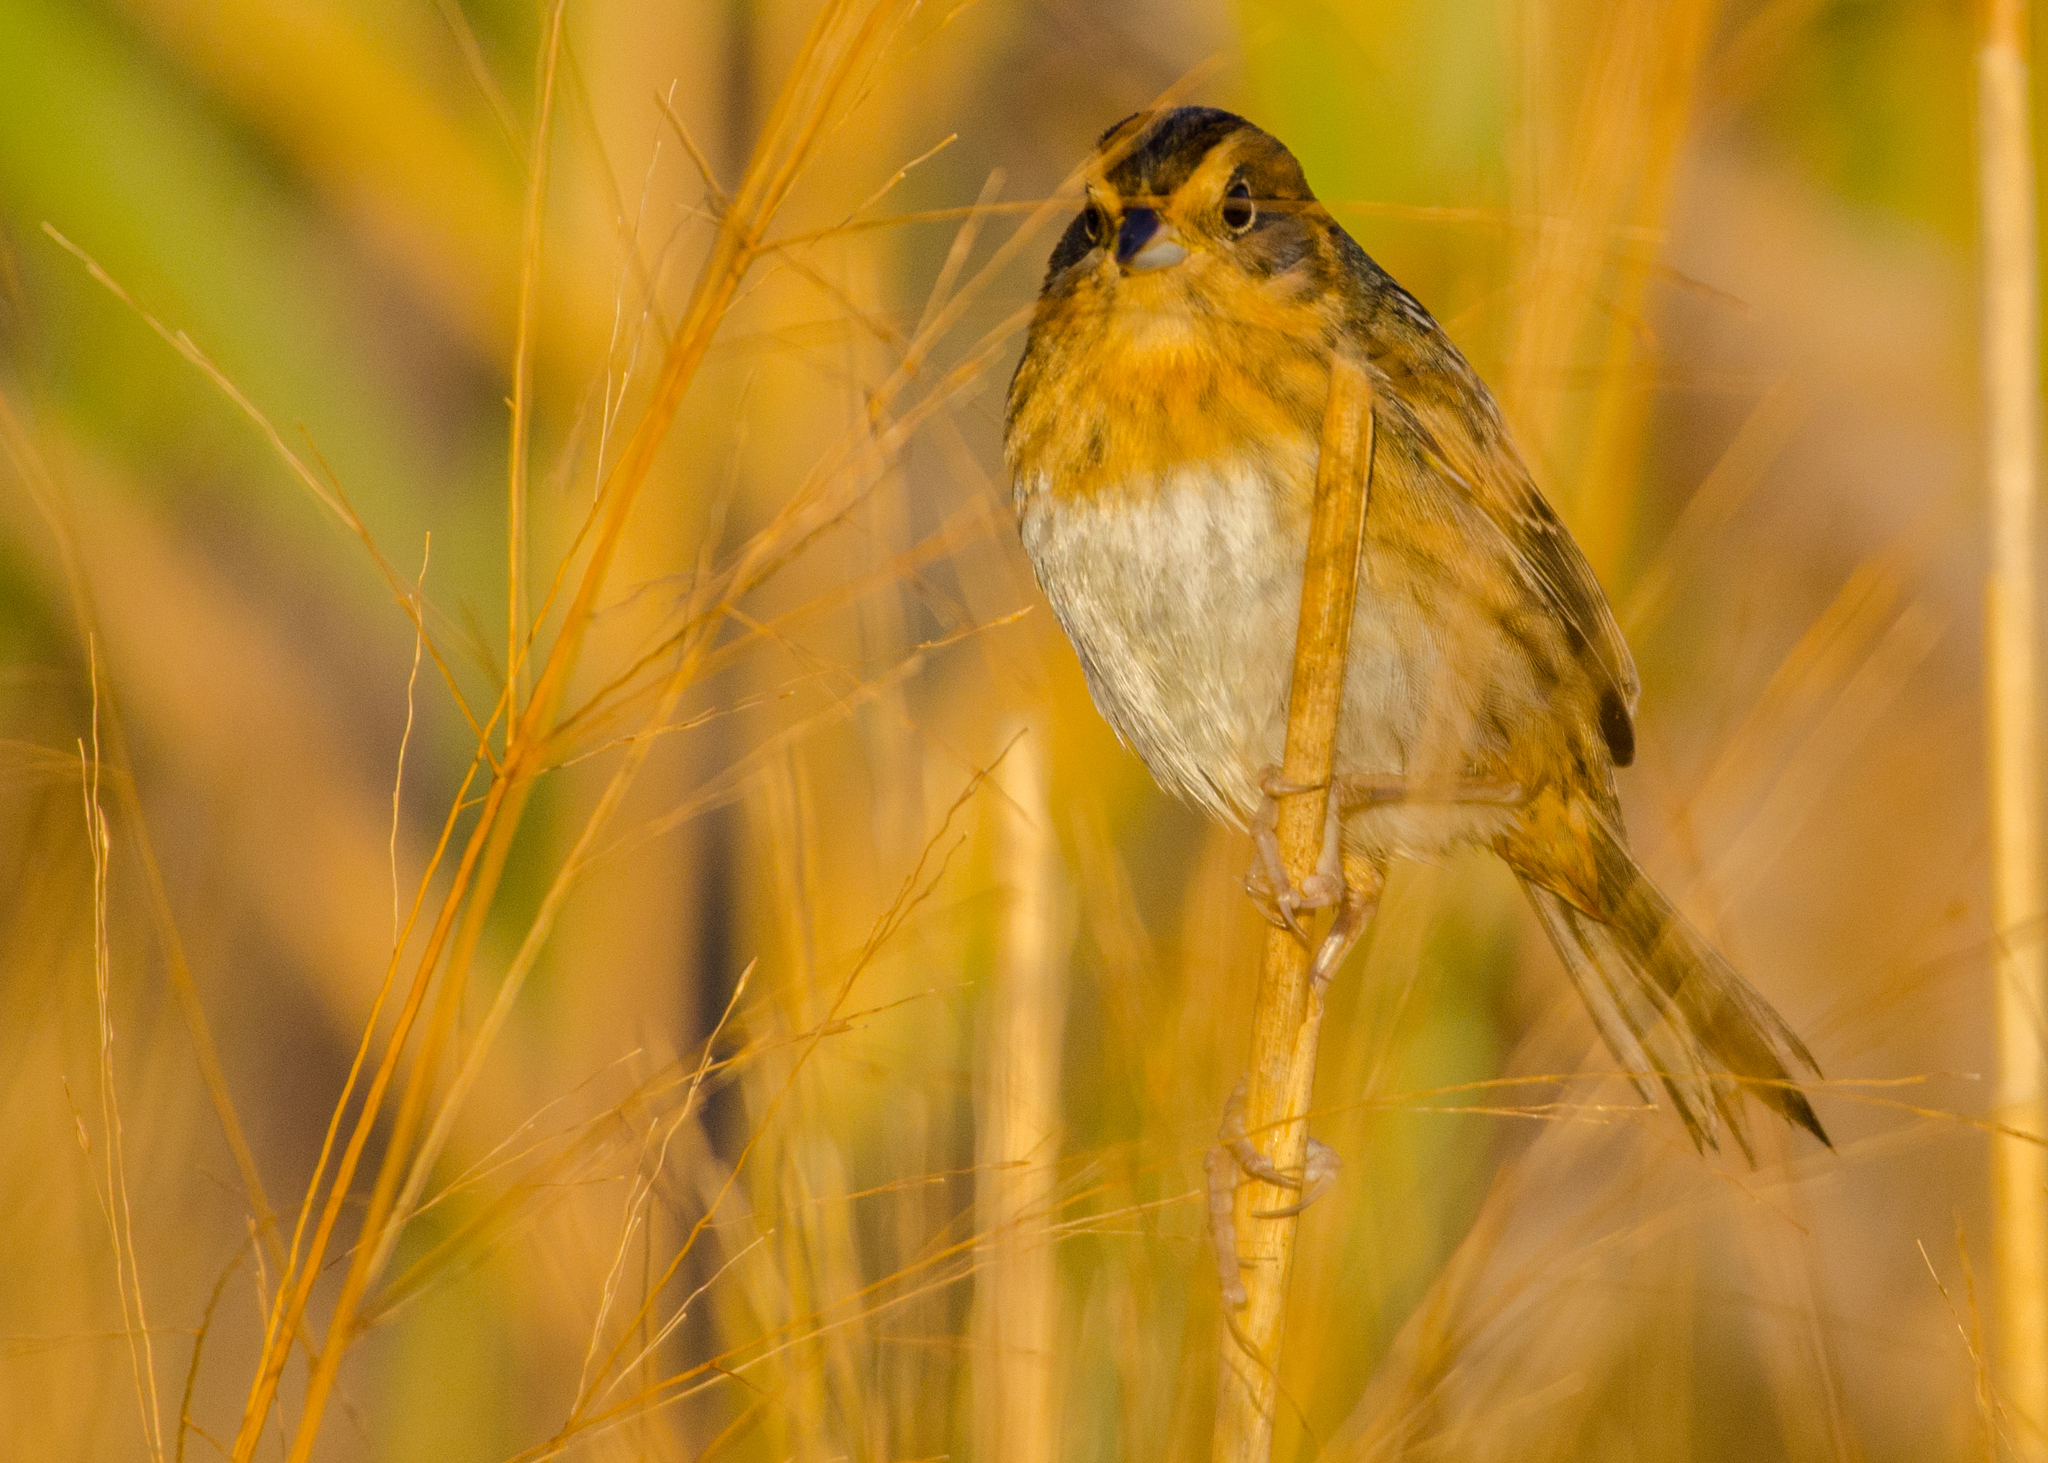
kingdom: Animalia
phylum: Chordata
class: Aves
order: Passeriformes
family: Passerellidae
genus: Ammospiza
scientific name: Ammospiza nelsoni
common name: Nelson's sparrow
